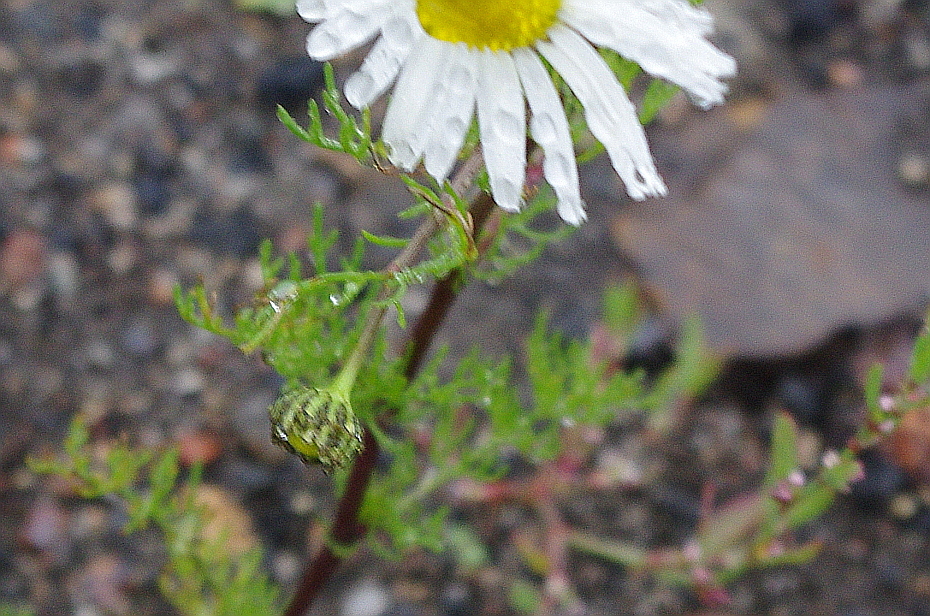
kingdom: Plantae
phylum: Tracheophyta
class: Magnoliopsida
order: Asterales
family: Asteraceae
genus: Tripleurospermum
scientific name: Tripleurospermum maritimum
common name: Sea mayweed
